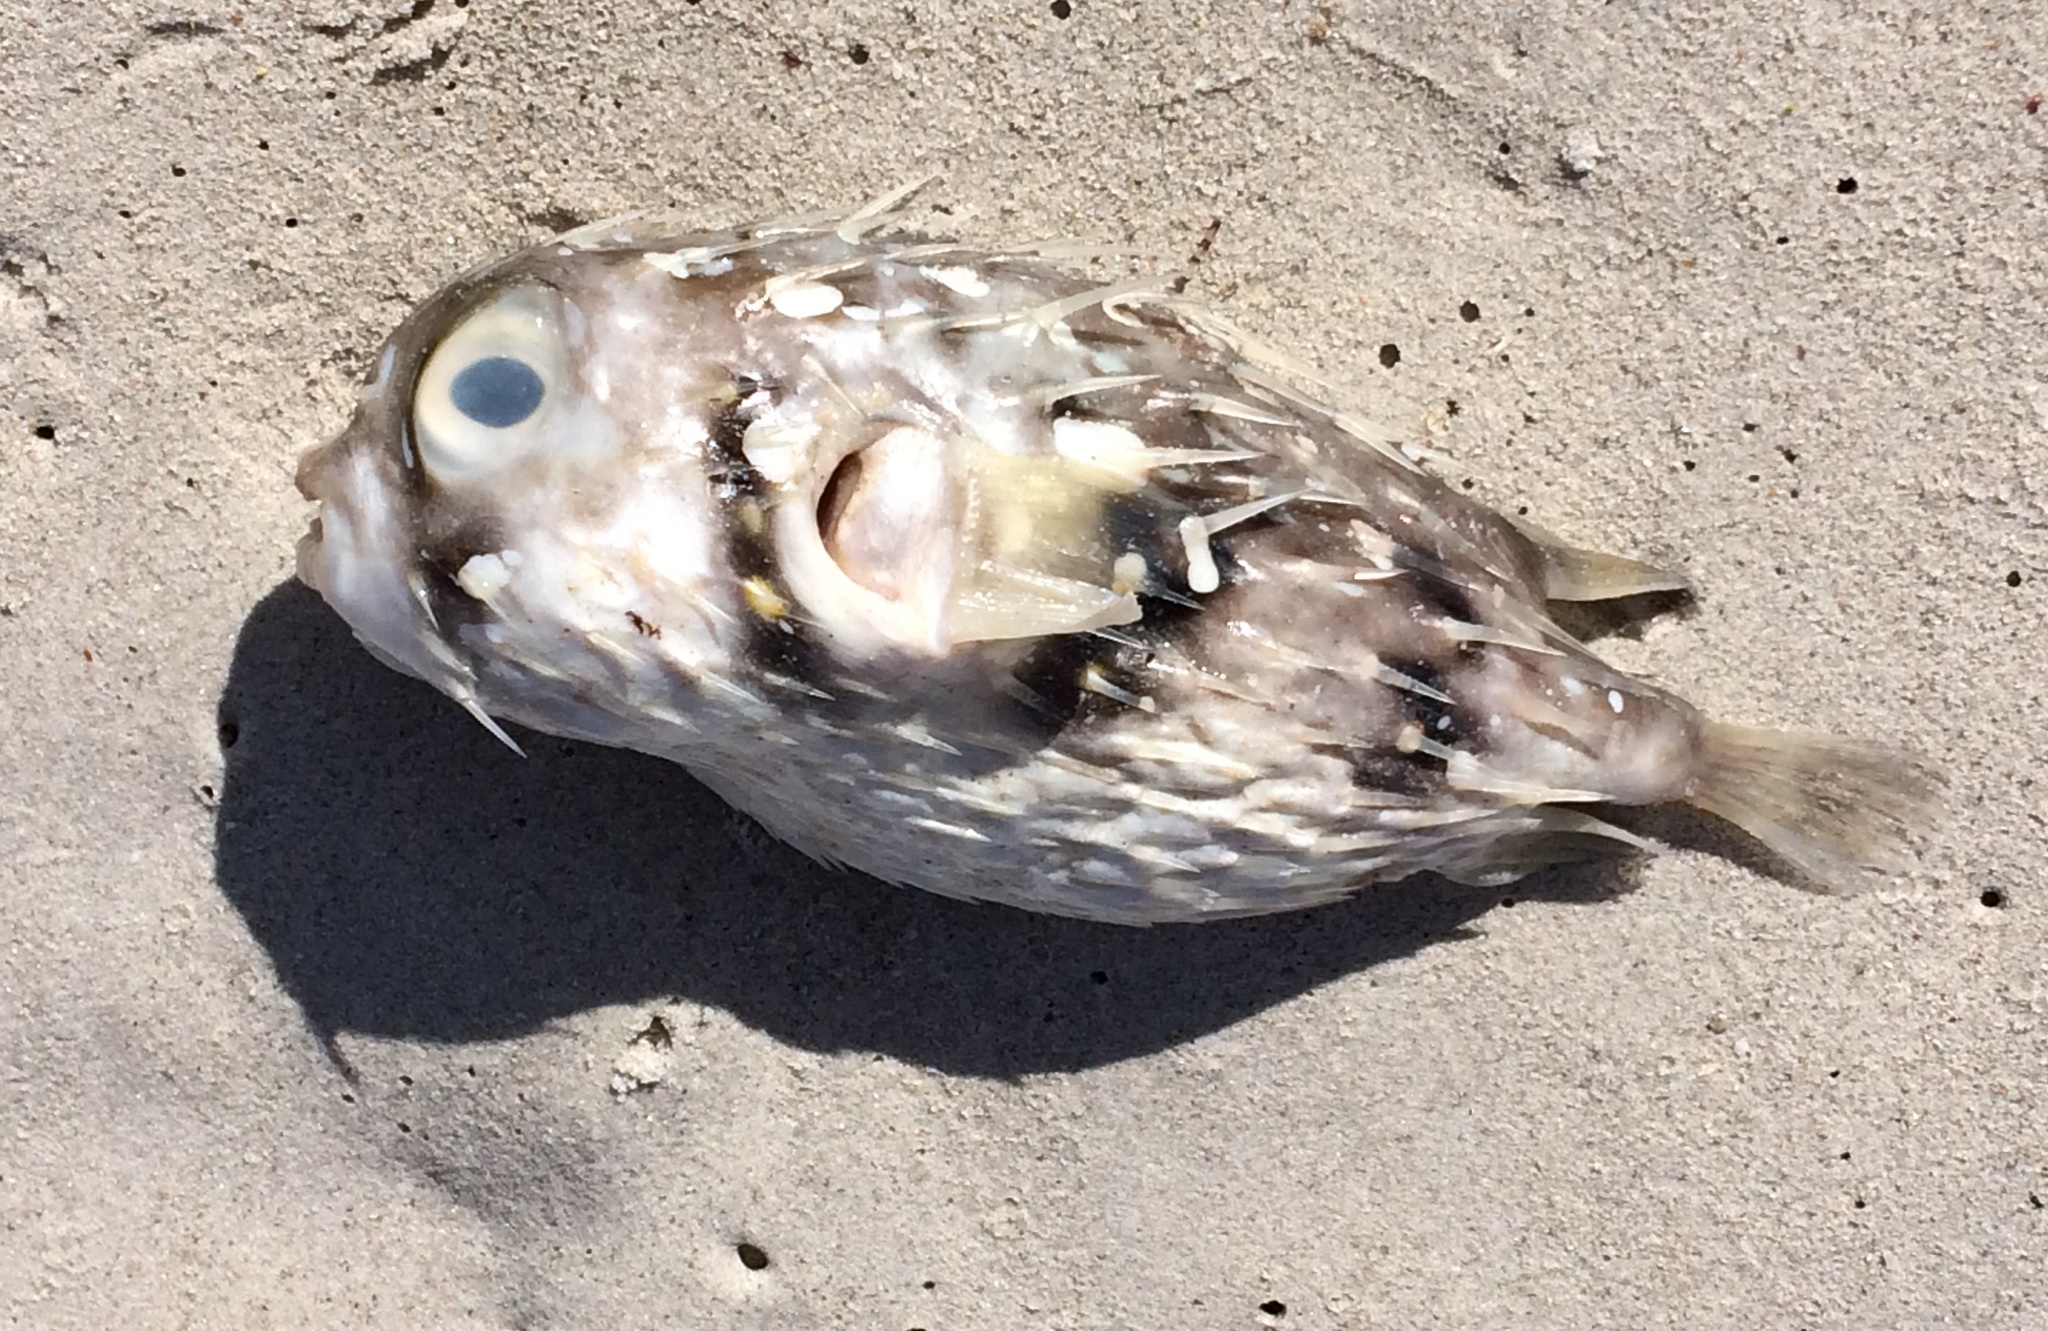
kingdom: Animalia
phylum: Chordata
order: Tetraodontiformes
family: Diodontidae
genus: Diodon
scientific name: Diodon nicthemerus
